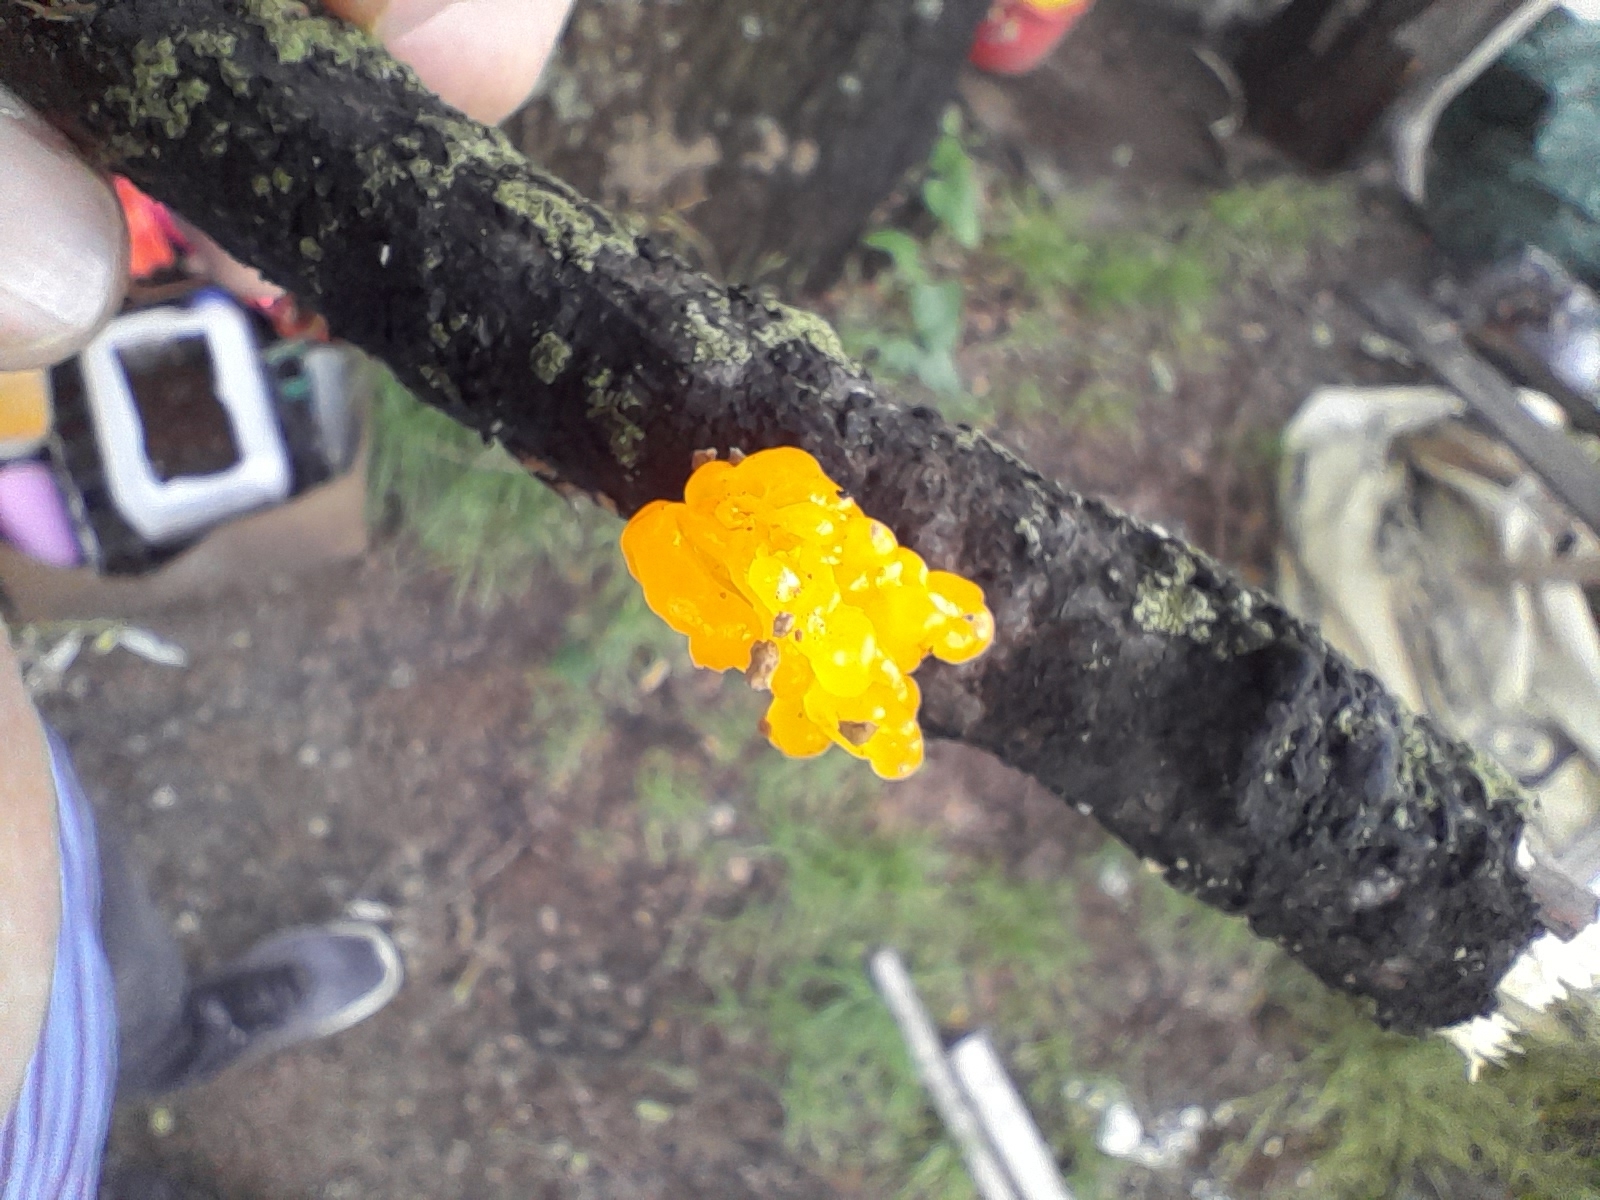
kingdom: Fungi
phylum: Basidiomycota
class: Tremellomycetes
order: Tremellales
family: Tremellaceae
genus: Tremella
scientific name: Tremella mesenterica
